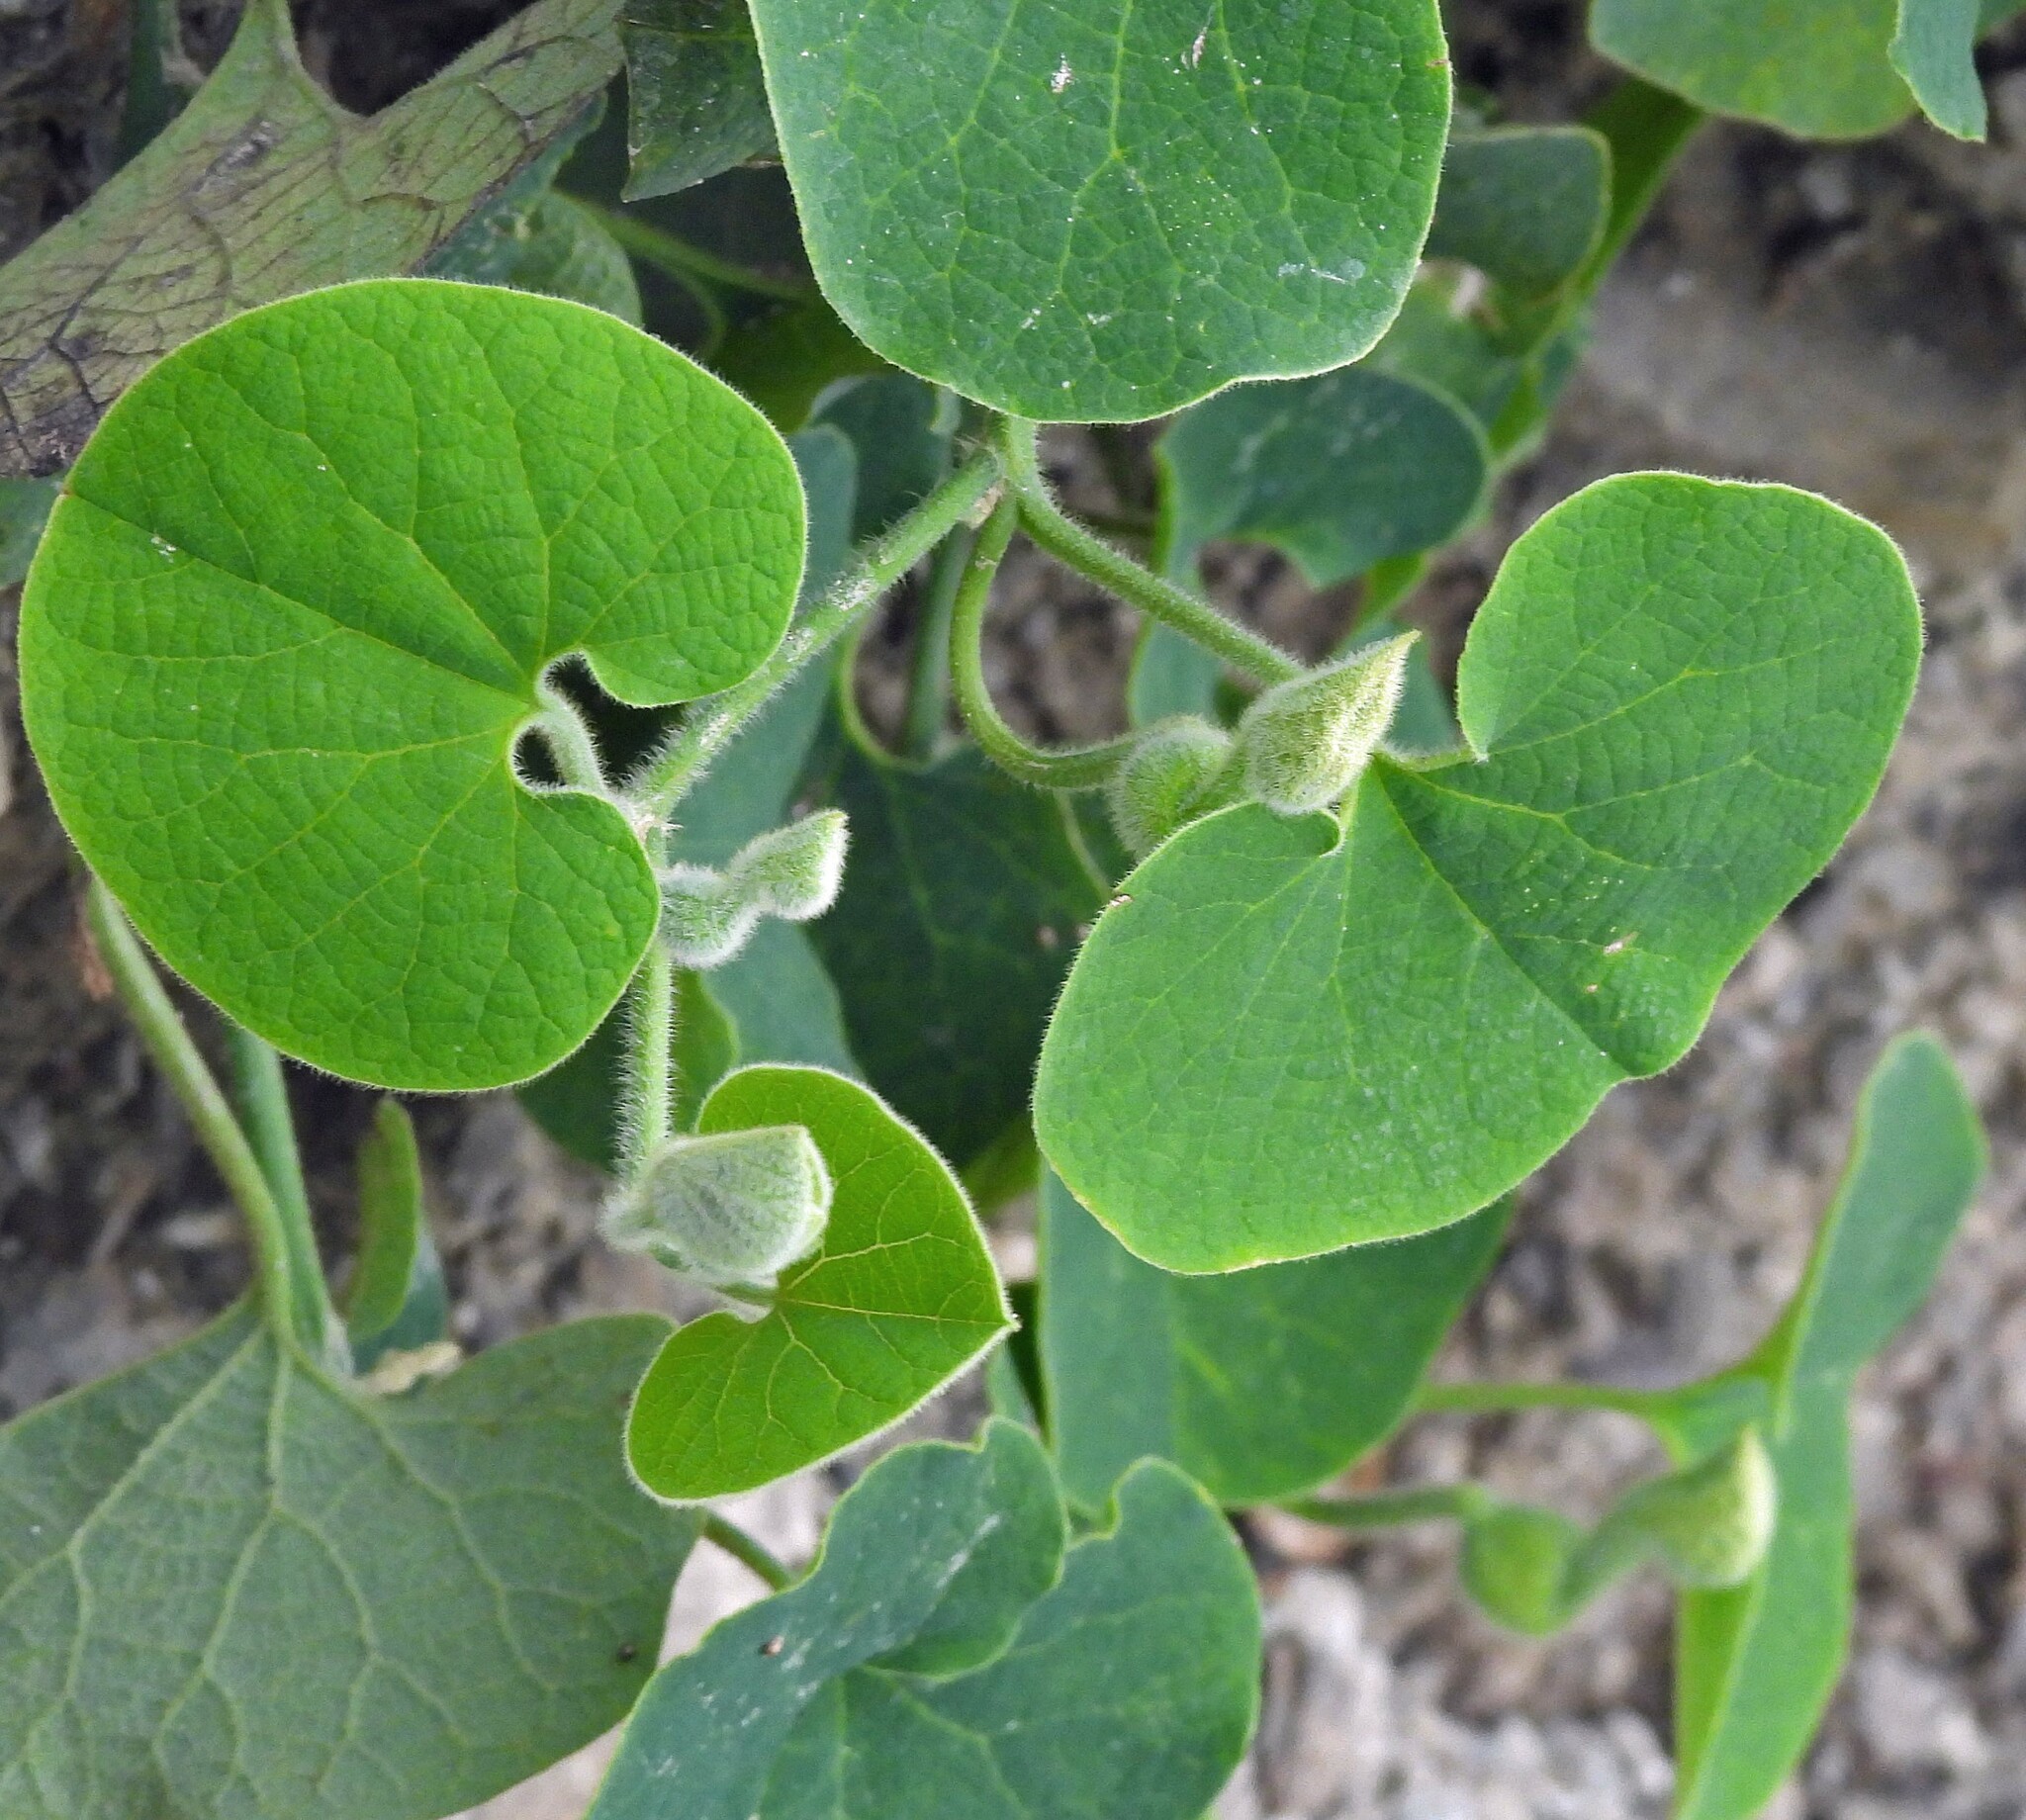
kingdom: Plantae
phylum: Tracheophyta
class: Magnoliopsida
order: Piperales
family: Aristolochiaceae
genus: Aristolochia
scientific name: Aristolochia prostrata
